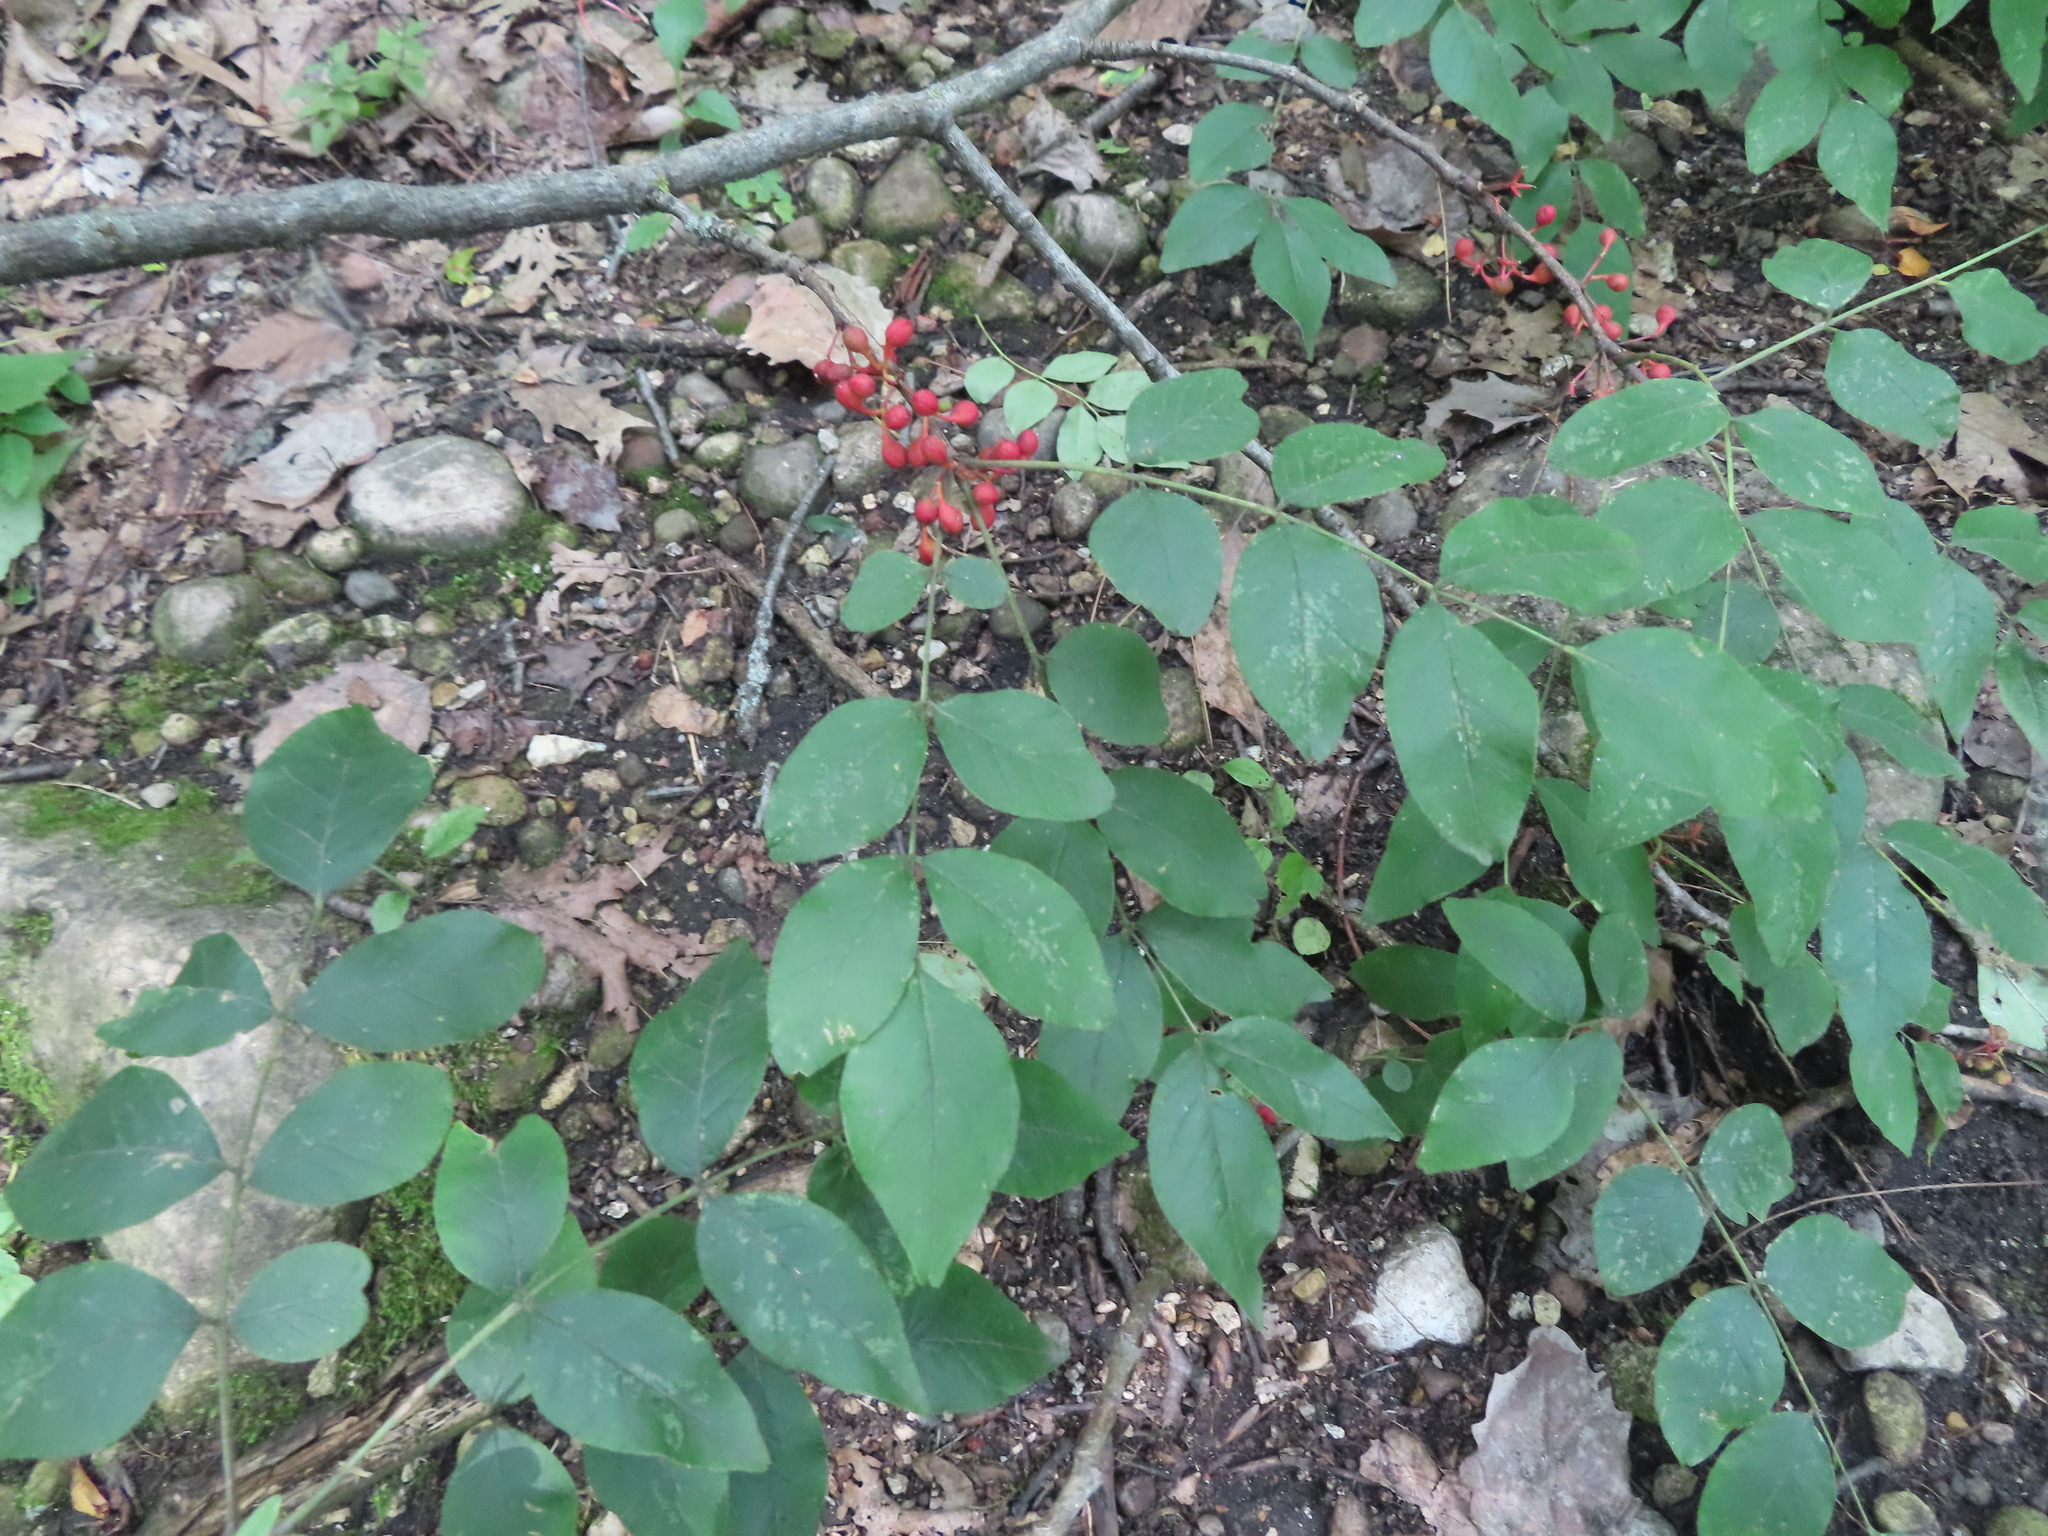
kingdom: Plantae
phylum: Tracheophyta
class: Magnoliopsida
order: Sapindales
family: Rutaceae
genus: Zanthoxylum
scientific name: Zanthoxylum americanum
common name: Northern prickly-ash
